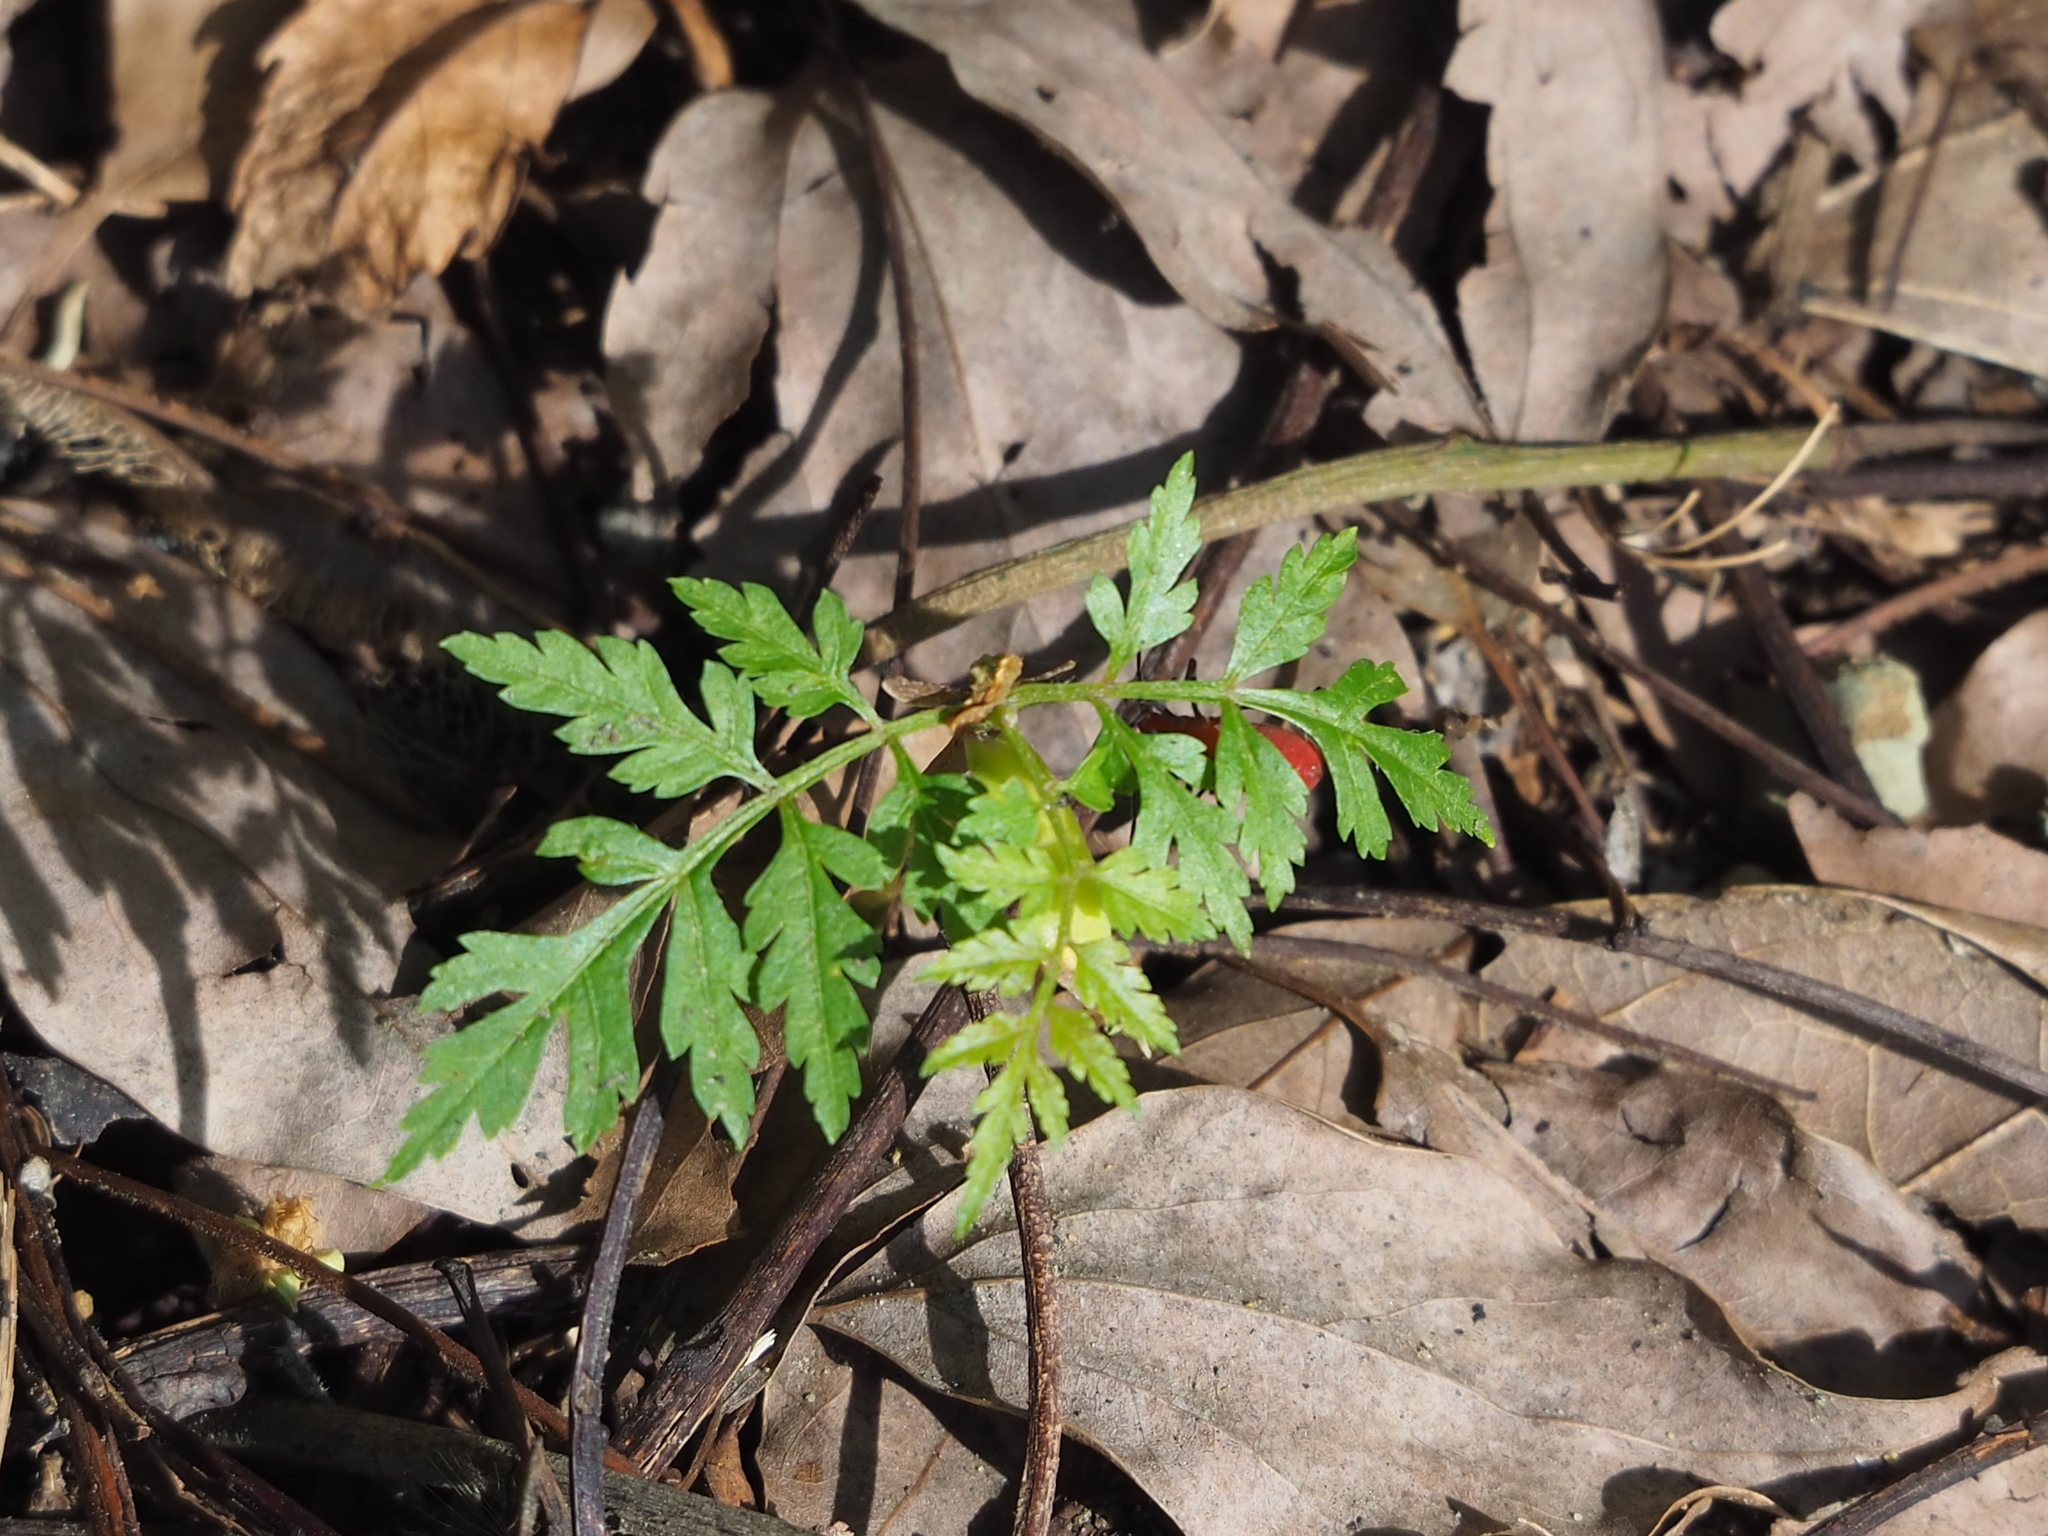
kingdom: Plantae
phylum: Tracheophyta
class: Magnoliopsida
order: Sapindales
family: Sapindaceae
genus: Koelreuteria
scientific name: Koelreuteria elegans
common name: Chinese flame tree
